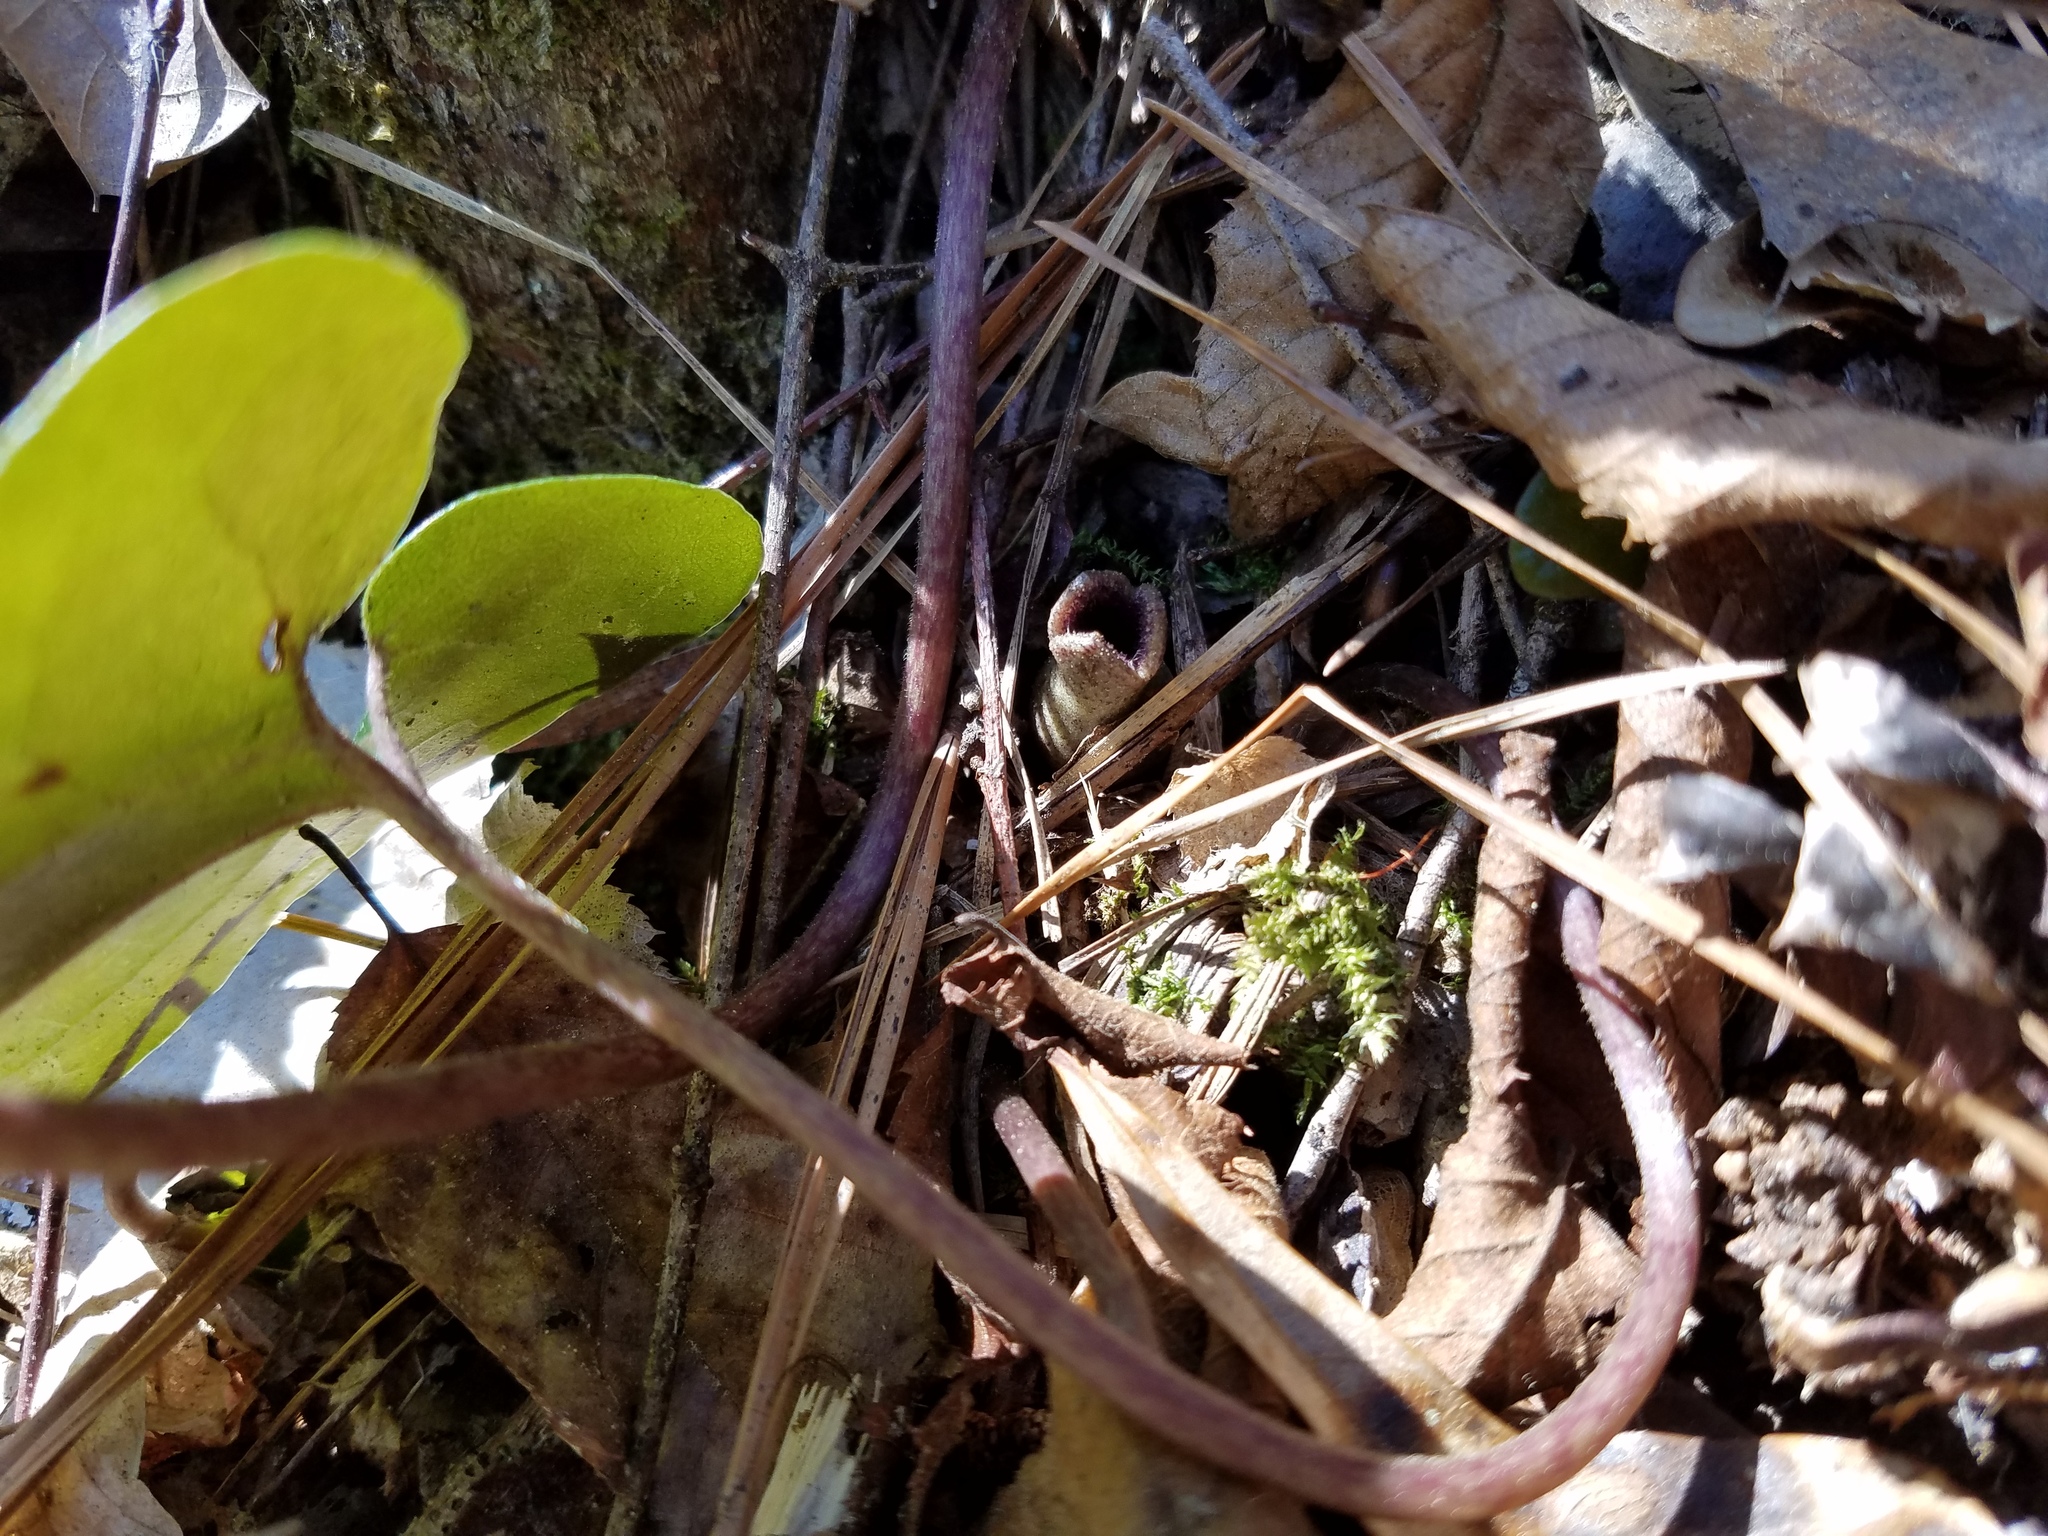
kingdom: Plantae
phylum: Tracheophyta
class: Magnoliopsida
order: Piperales
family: Aristolochiaceae
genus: Hexastylis
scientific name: Hexastylis arifolia
